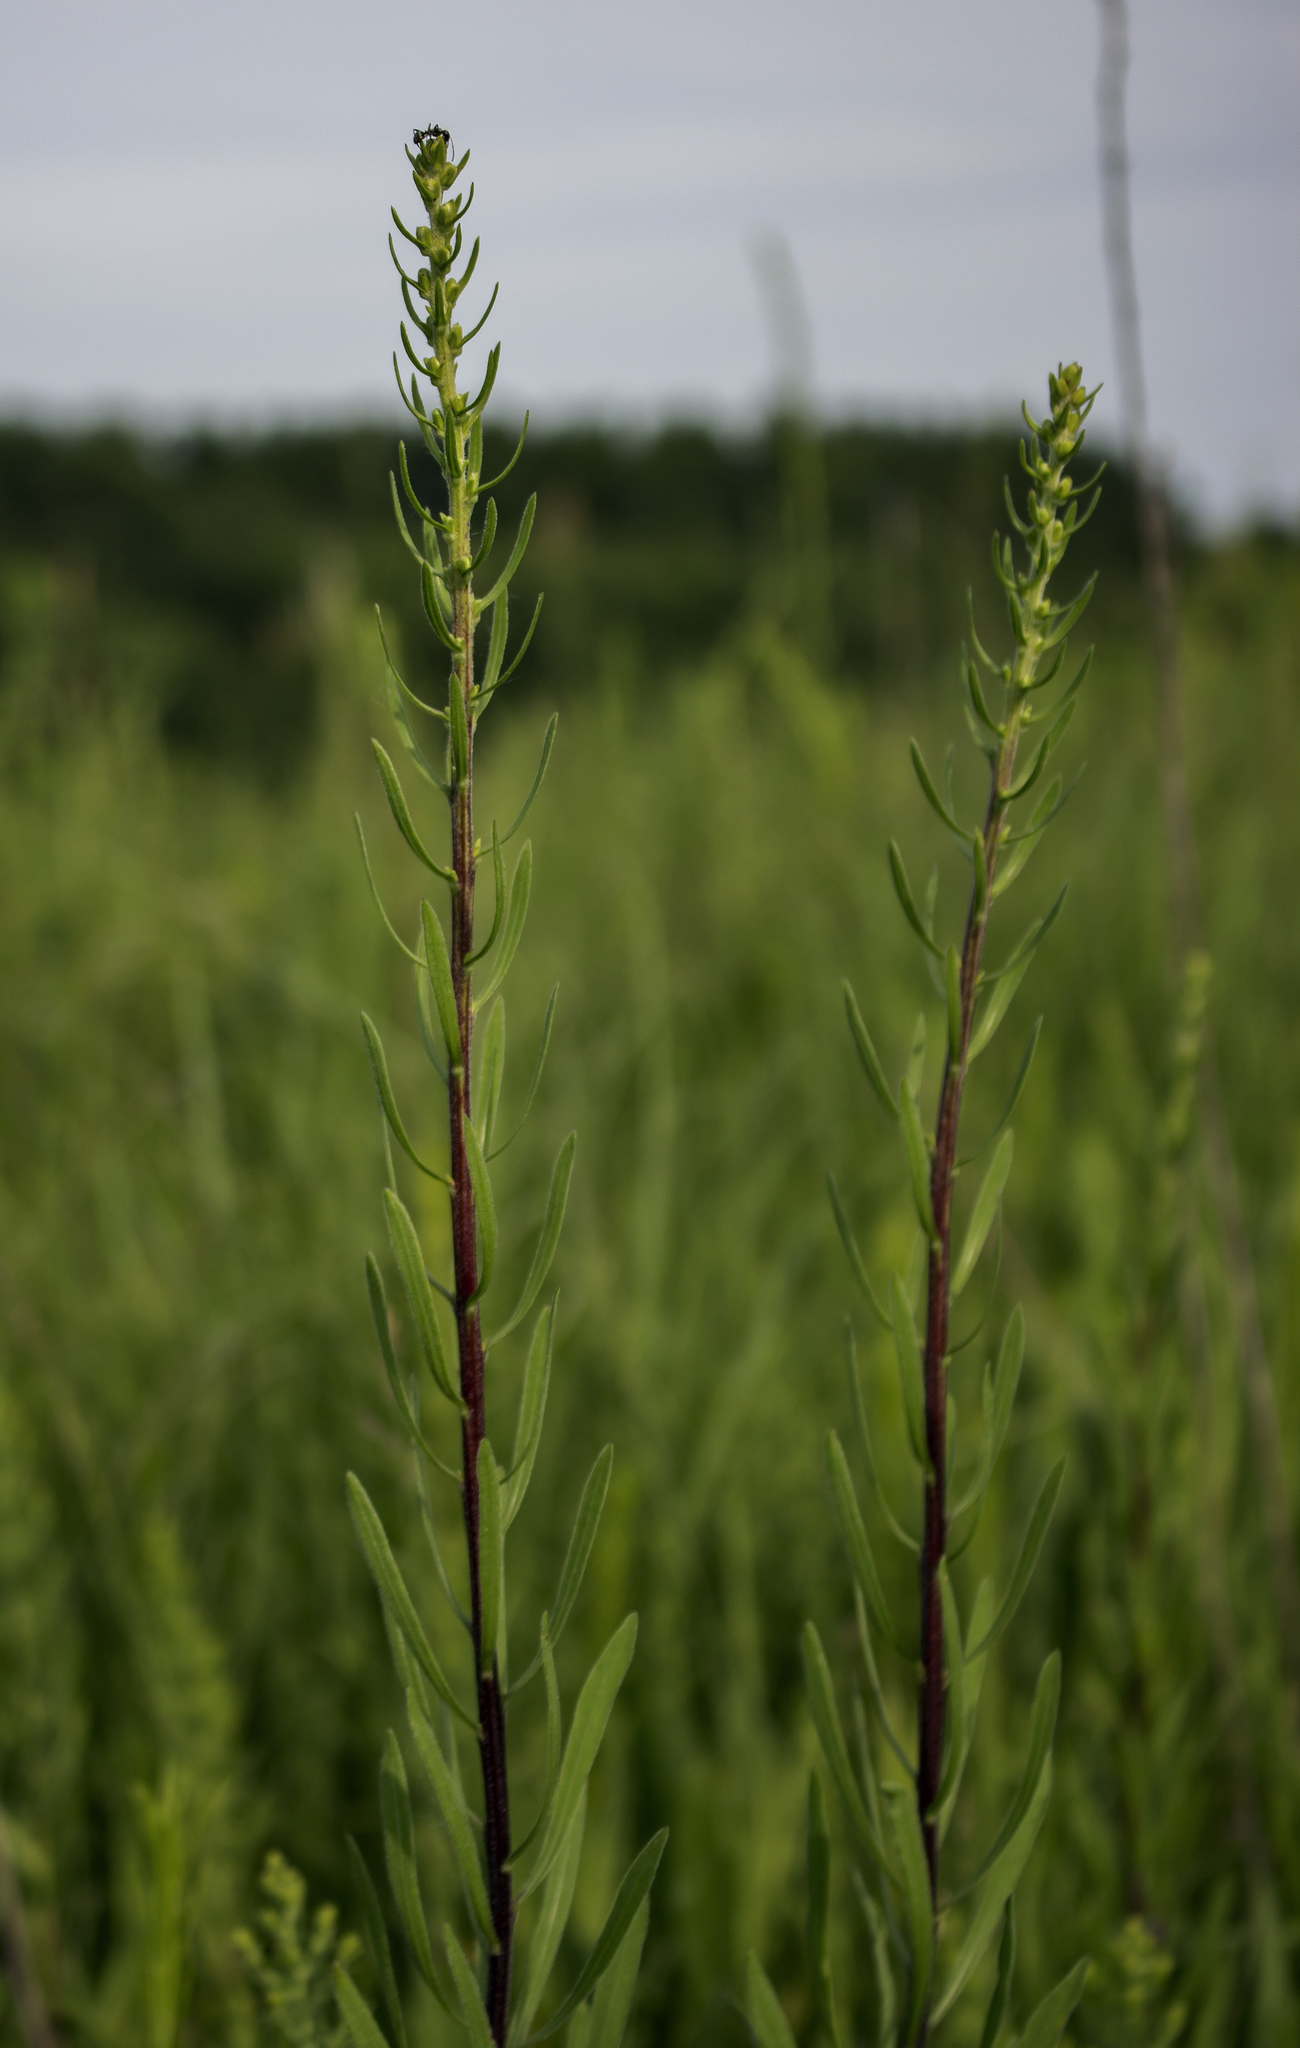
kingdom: Plantae
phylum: Tracheophyta
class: Magnoliopsida
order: Asterales
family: Asteraceae
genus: Liatris
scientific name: Liatris aspera
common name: Lacerate blazing-star
